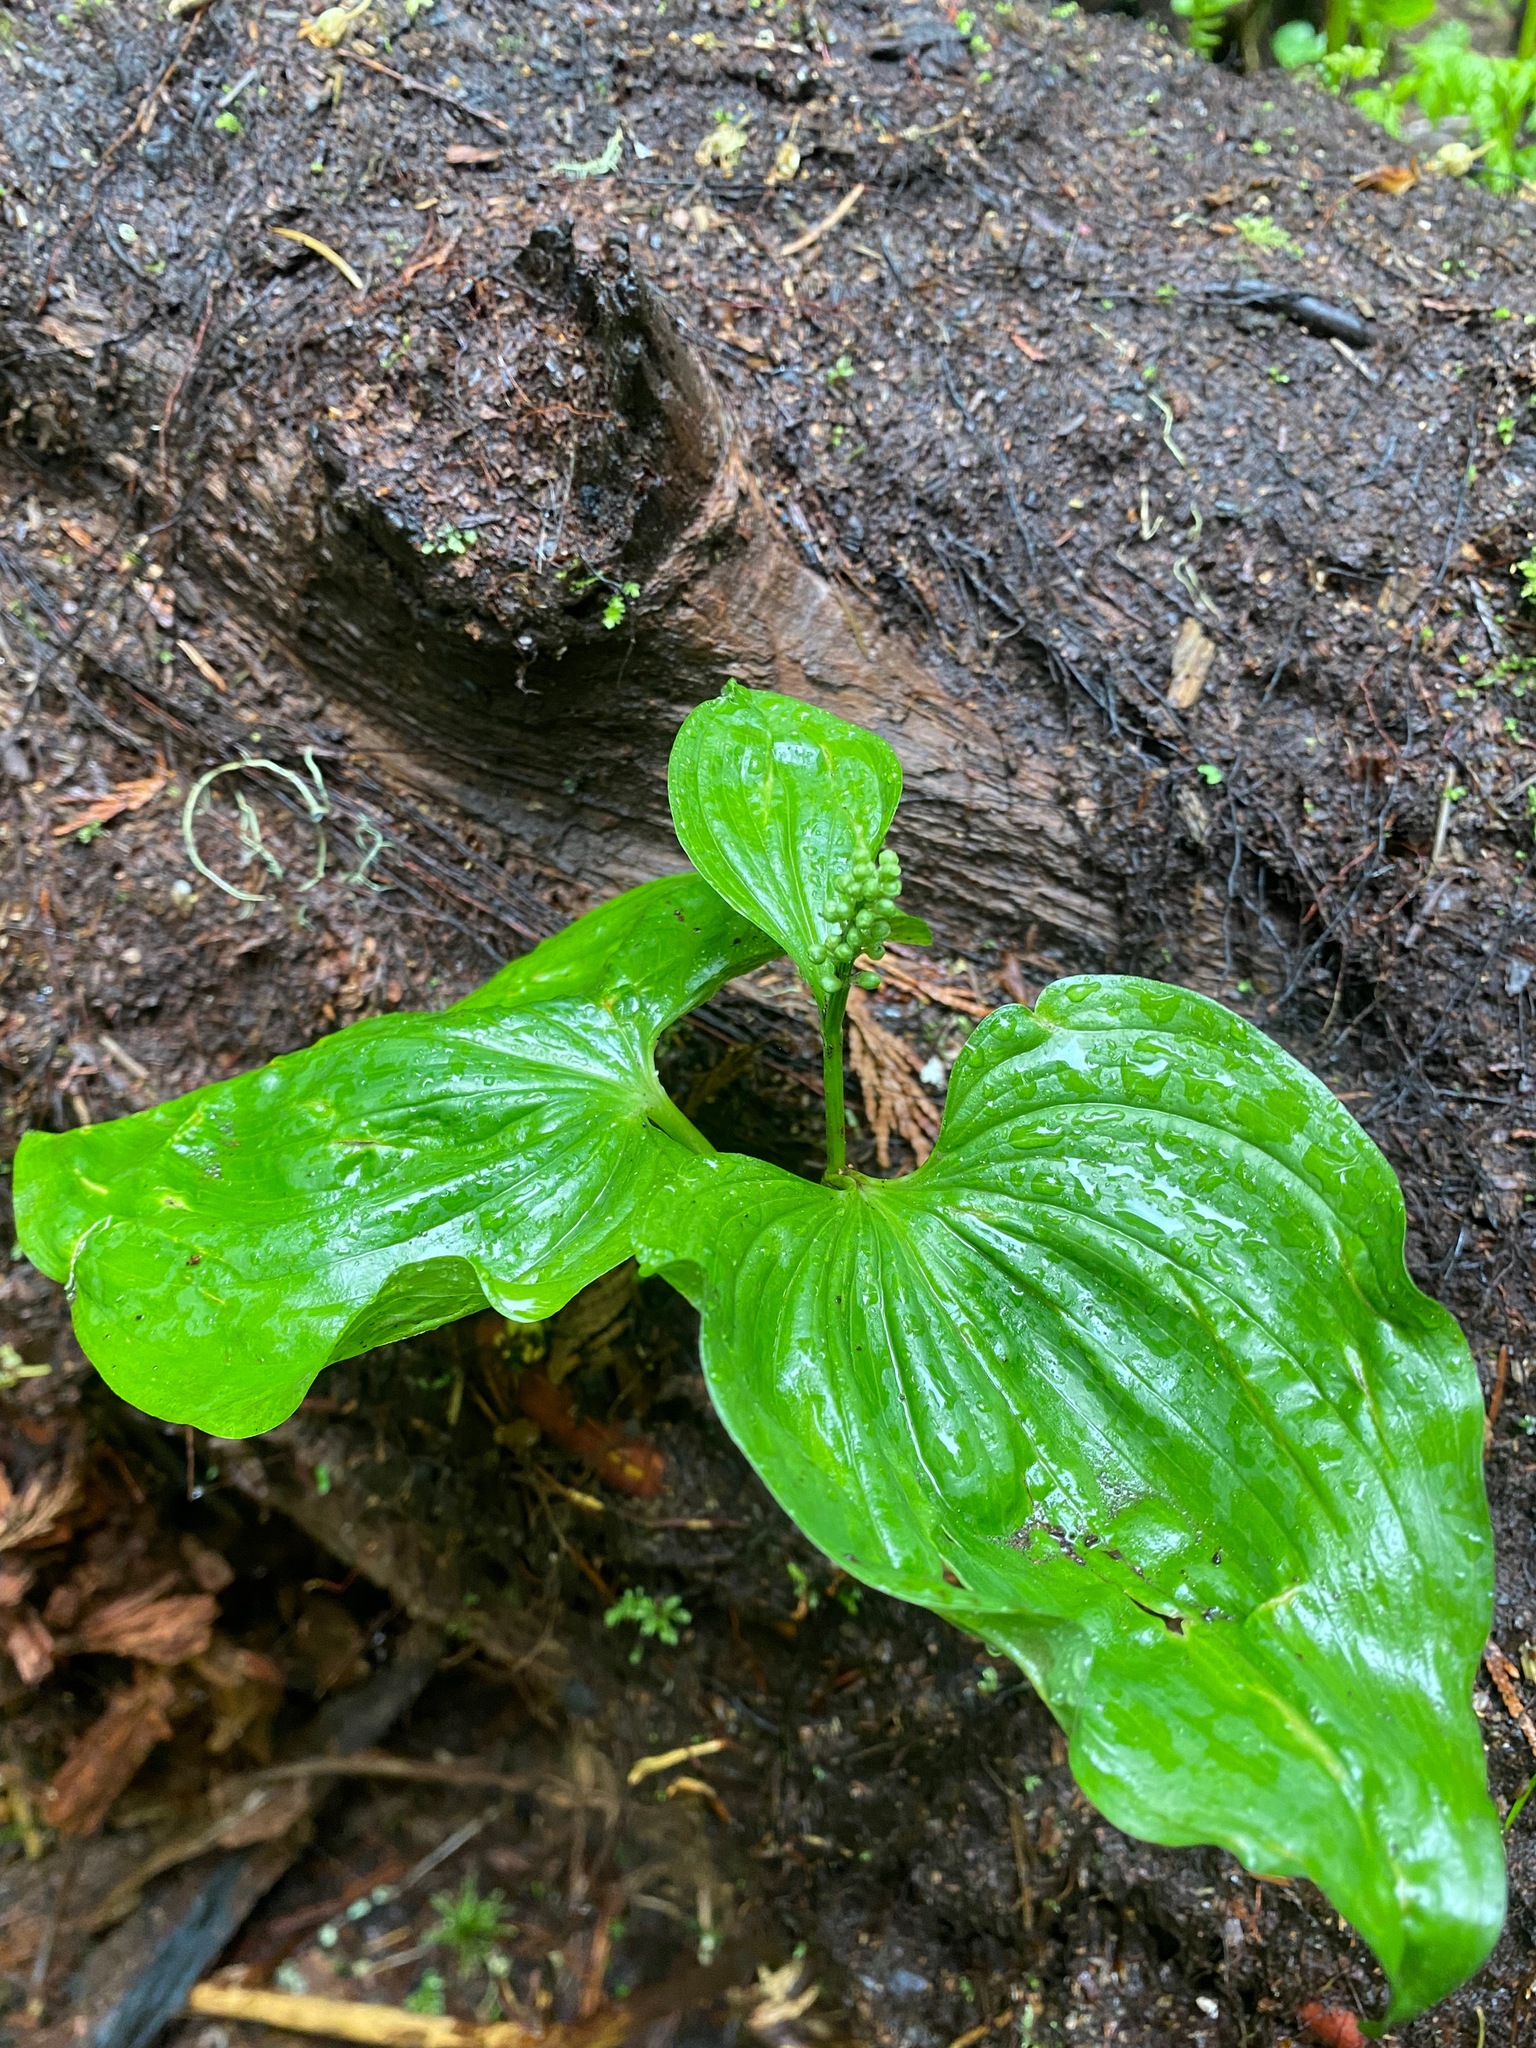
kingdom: Plantae
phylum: Tracheophyta
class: Liliopsida
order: Asparagales
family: Asparagaceae
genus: Maianthemum
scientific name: Maianthemum dilatatum
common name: False lily-of-the-valley
